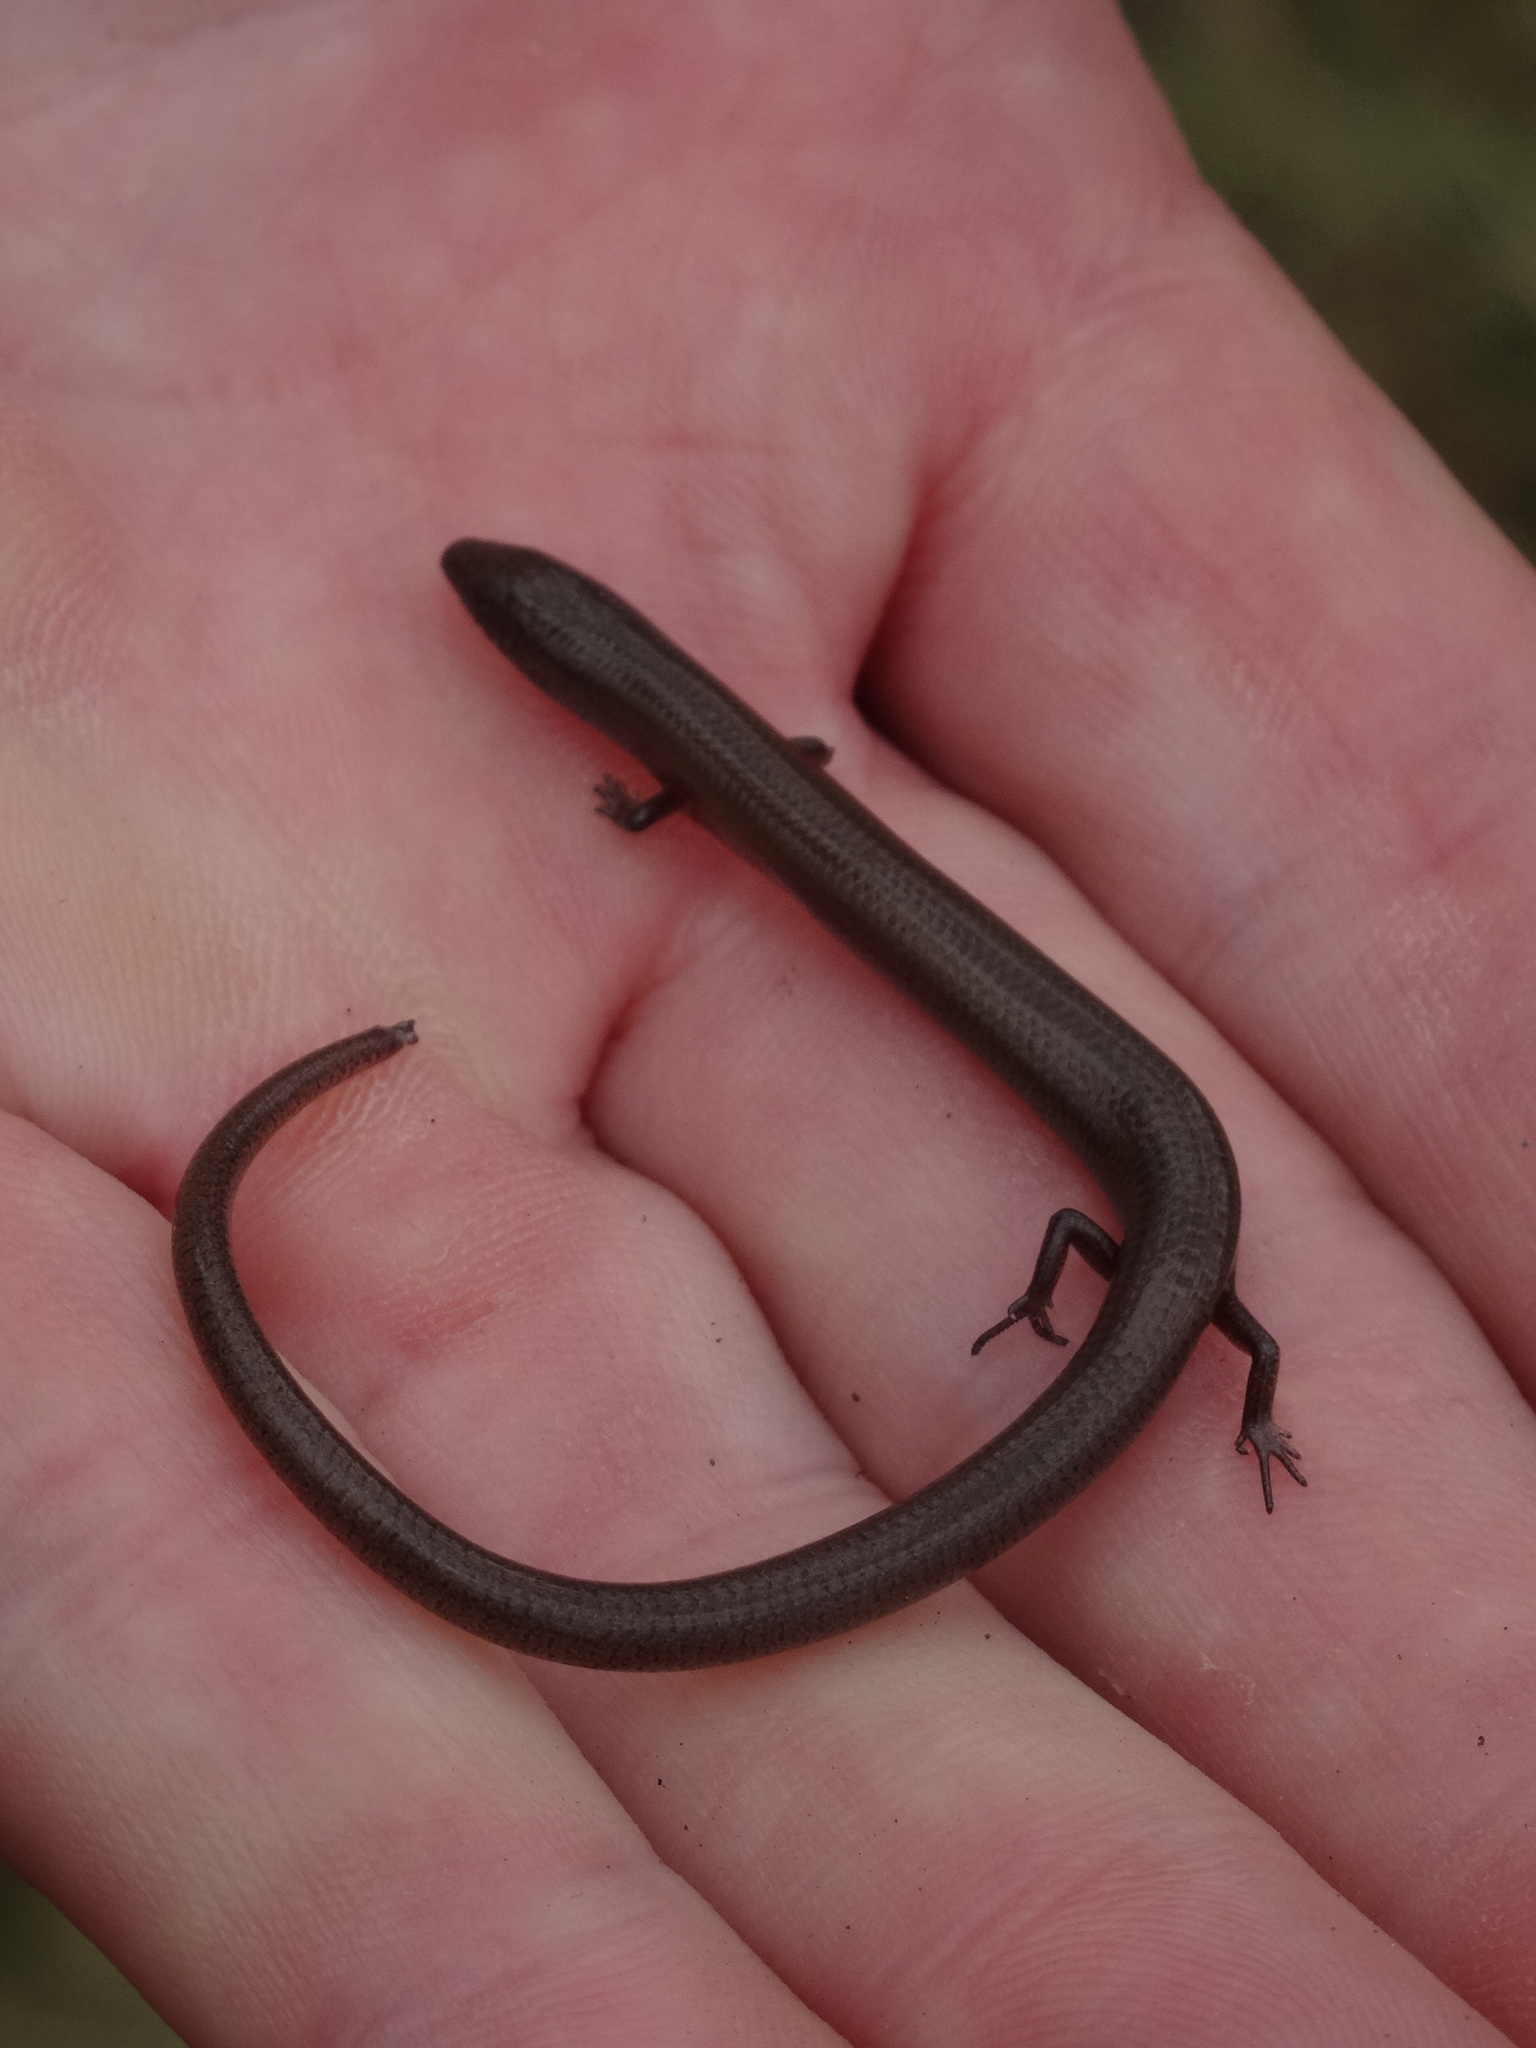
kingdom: Animalia
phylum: Chordata
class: Squamata
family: Scincidae
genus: Glaphyromorphus
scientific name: Glaphyromorphus punctulatus
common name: Fine-spotted mulch-skink
